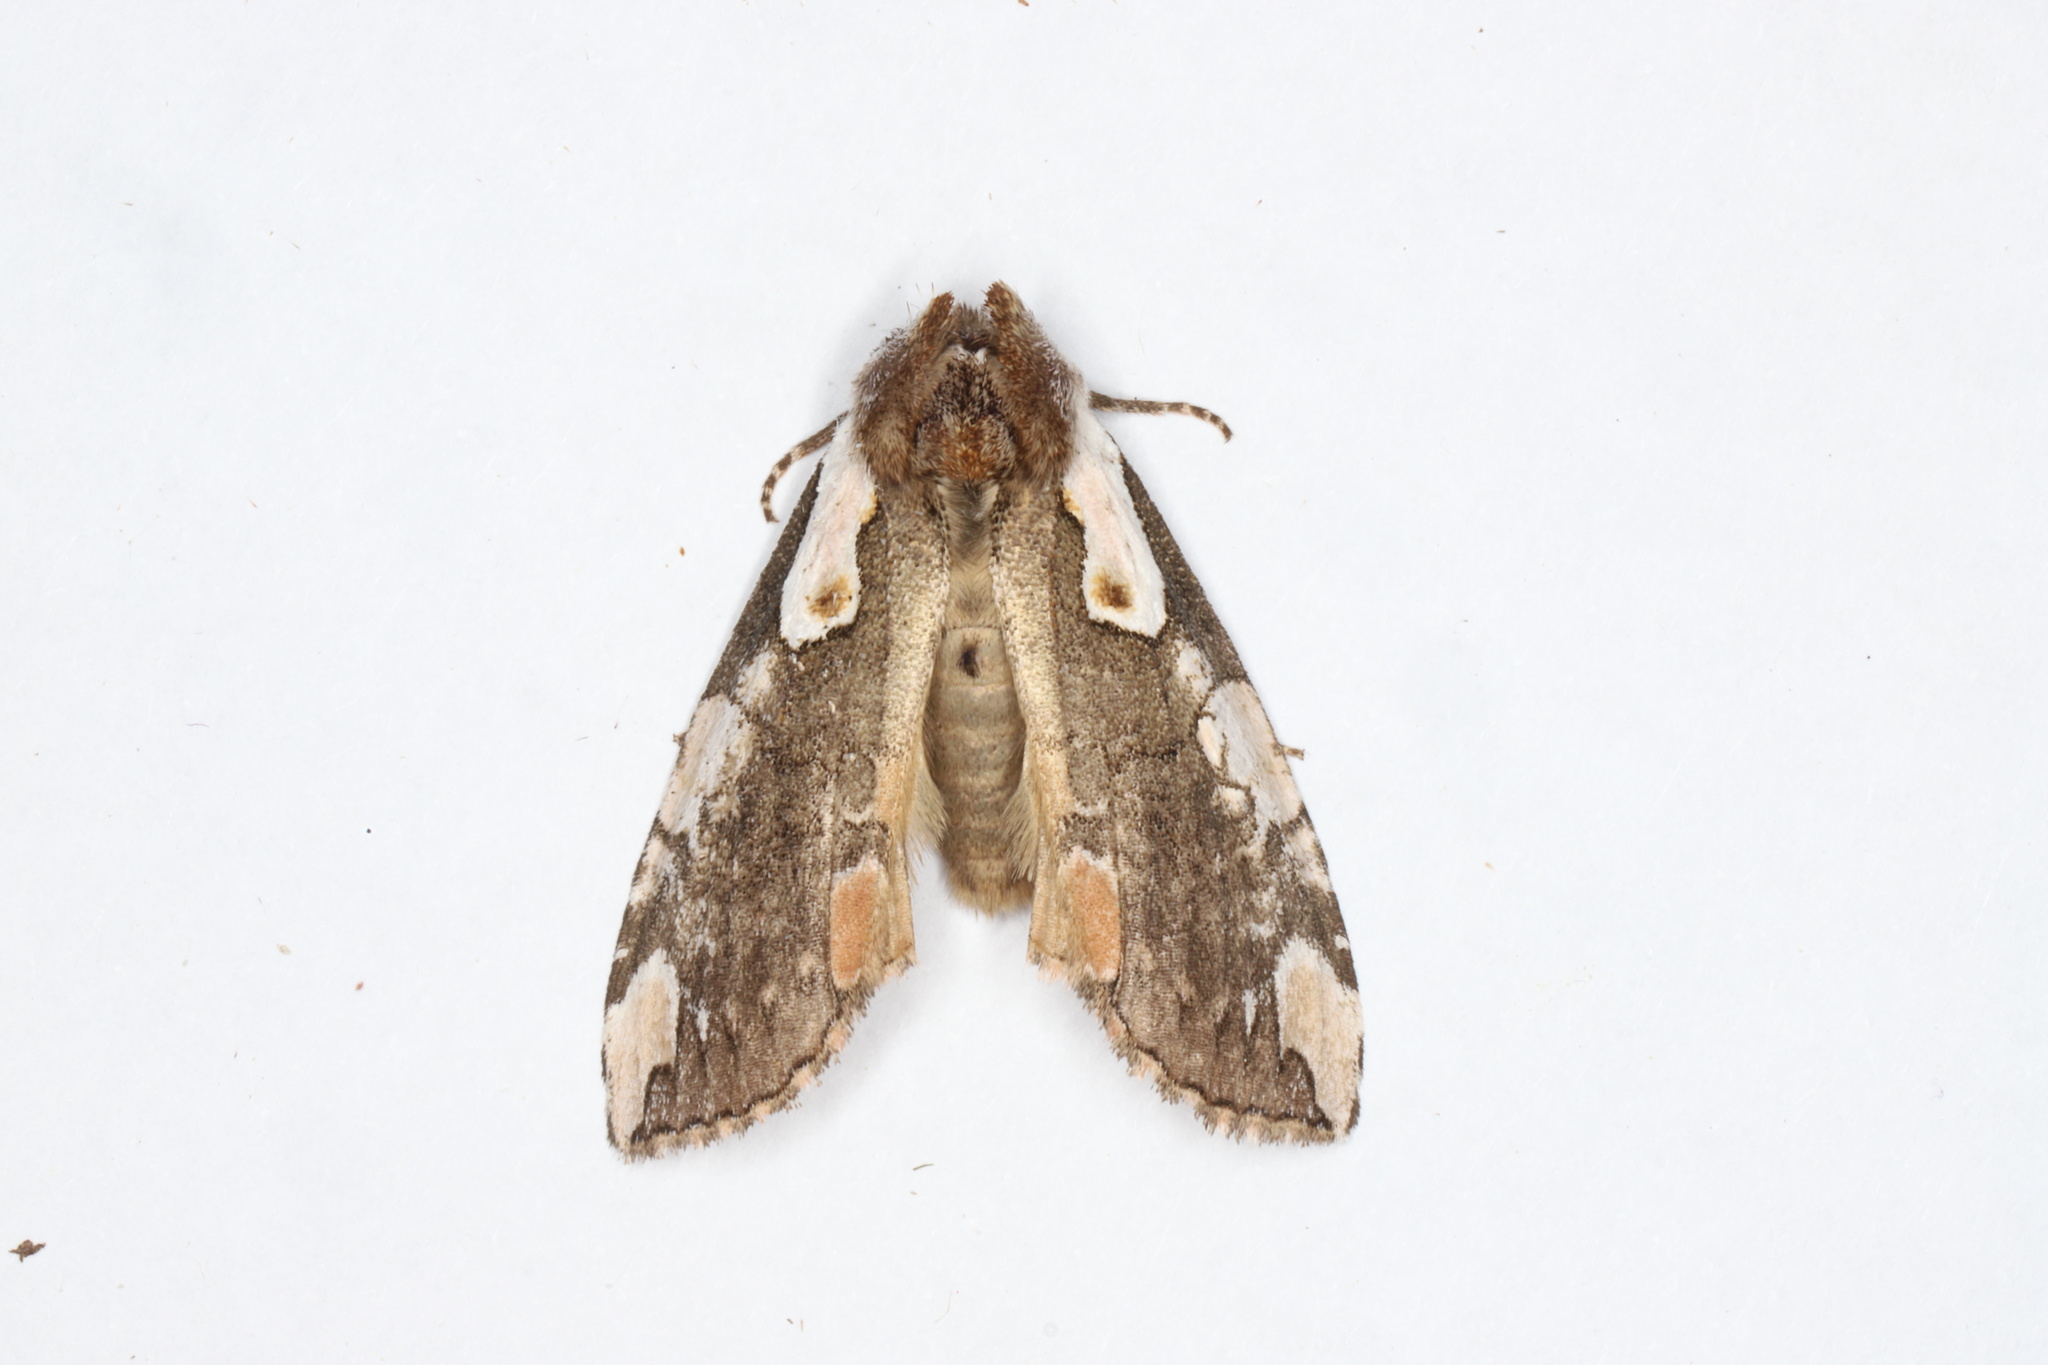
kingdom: Animalia
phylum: Arthropoda
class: Insecta
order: Lepidoptera
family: Drepanidae
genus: Euthyatira
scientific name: Euthyatira pudens
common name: Dogwood thyatirid moth
